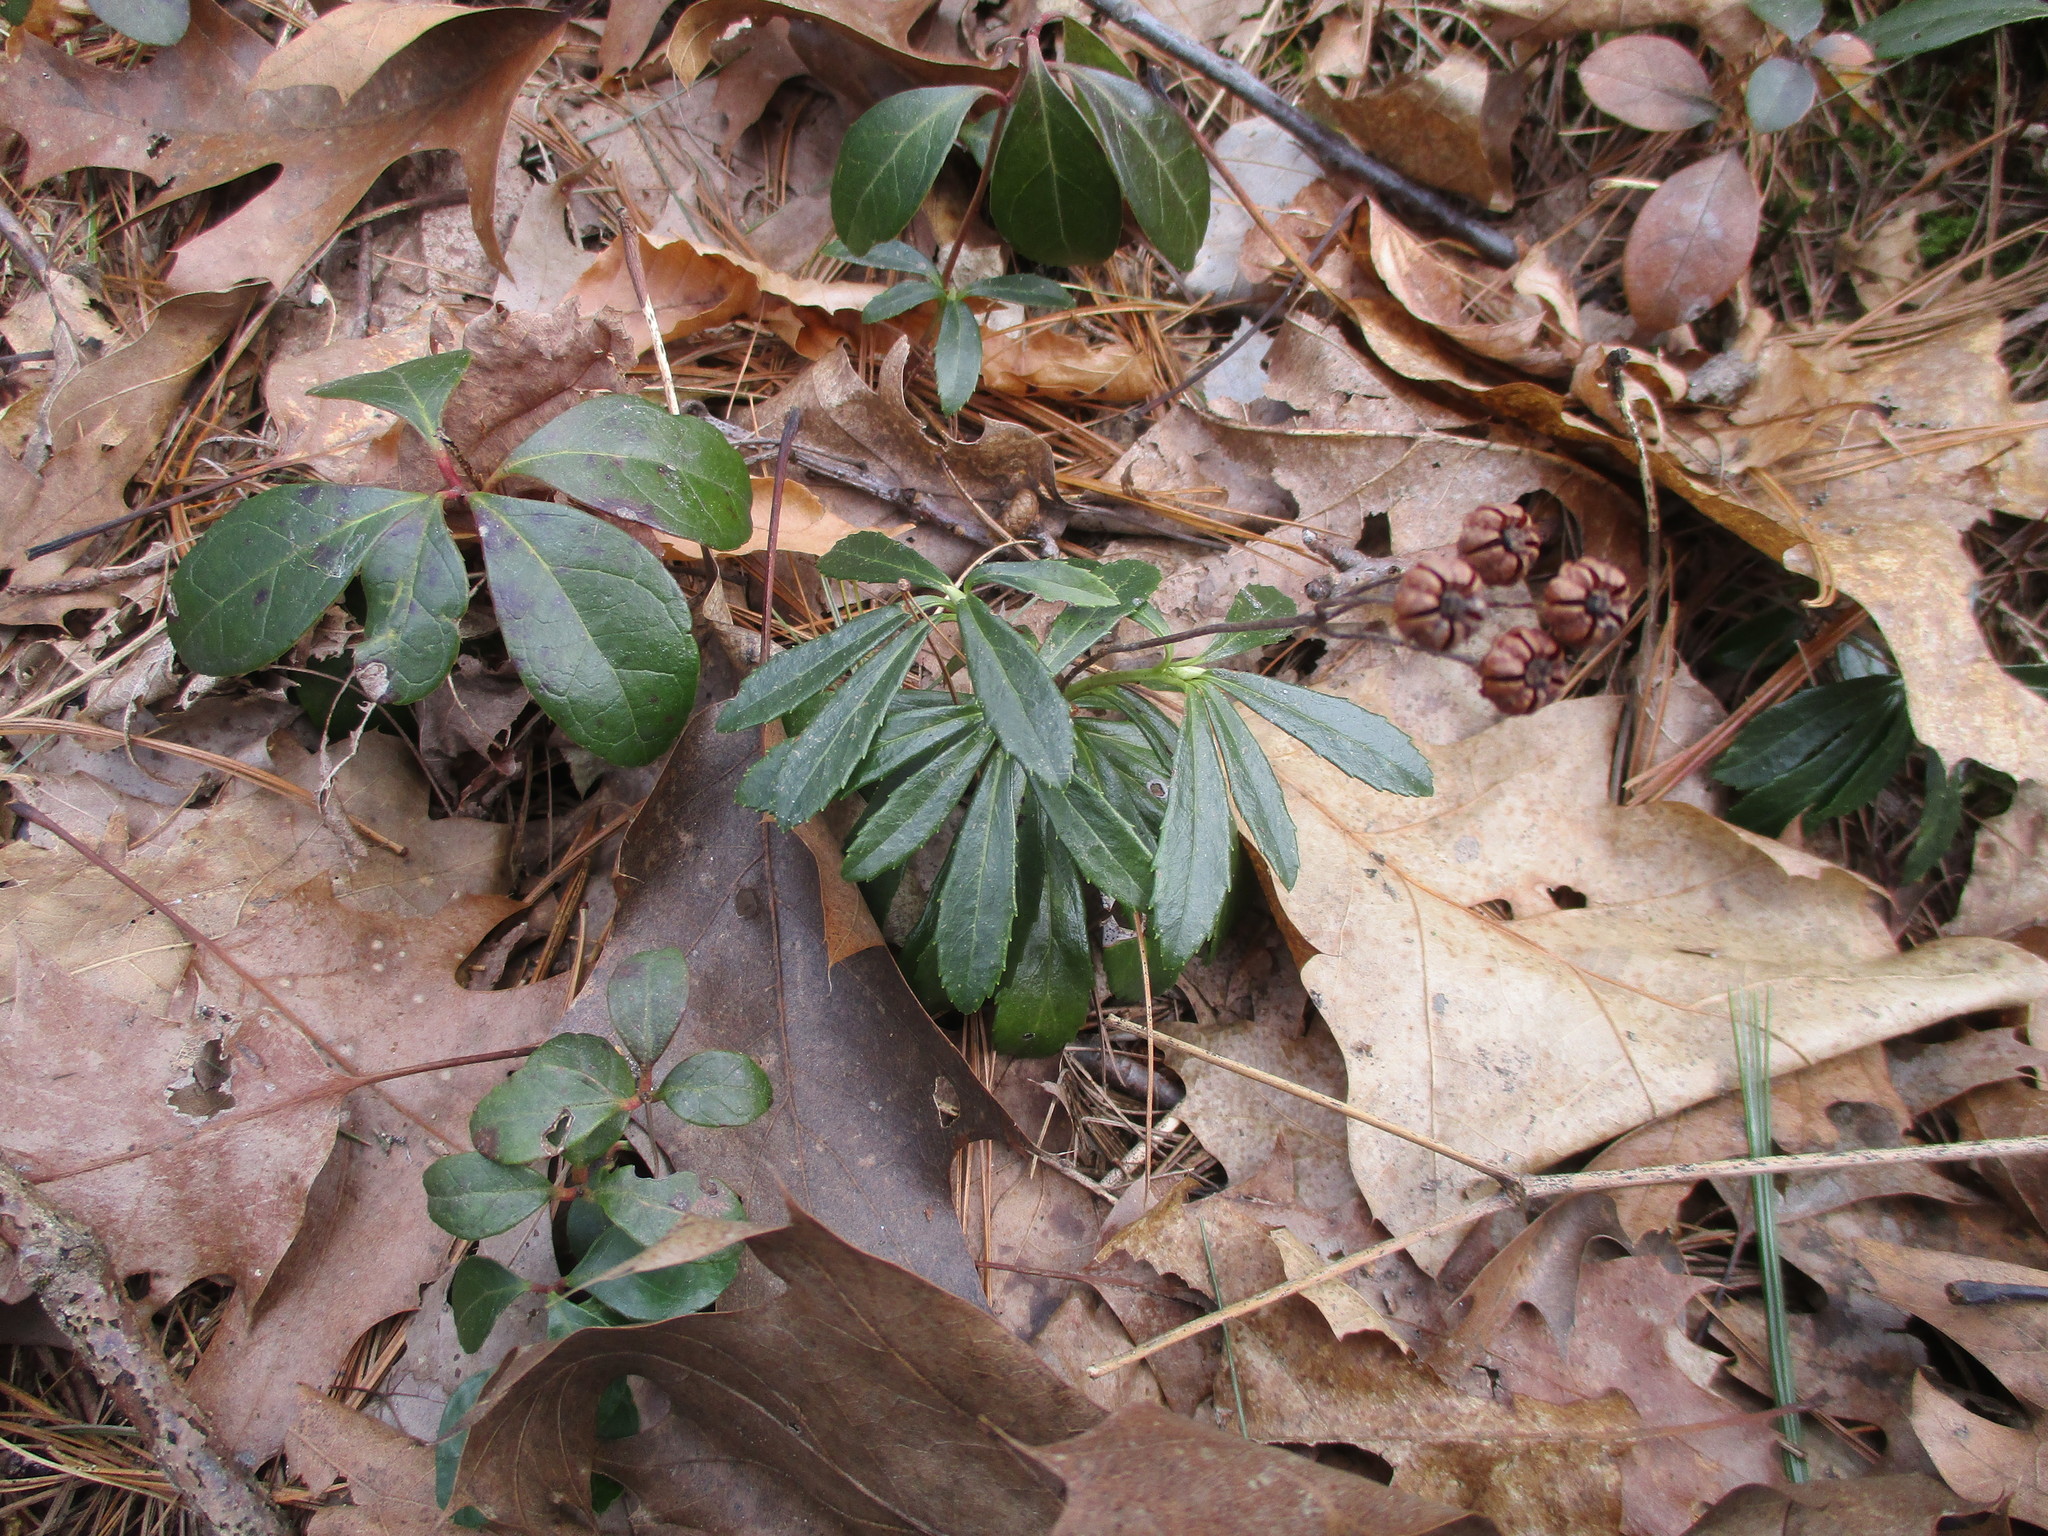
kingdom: Plantae
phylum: Tracheophyta
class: Magnoliopsida
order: Ericales
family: Ericaceae
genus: Chimaphila
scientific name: Chimaphila umbellata
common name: Pipsissewa
